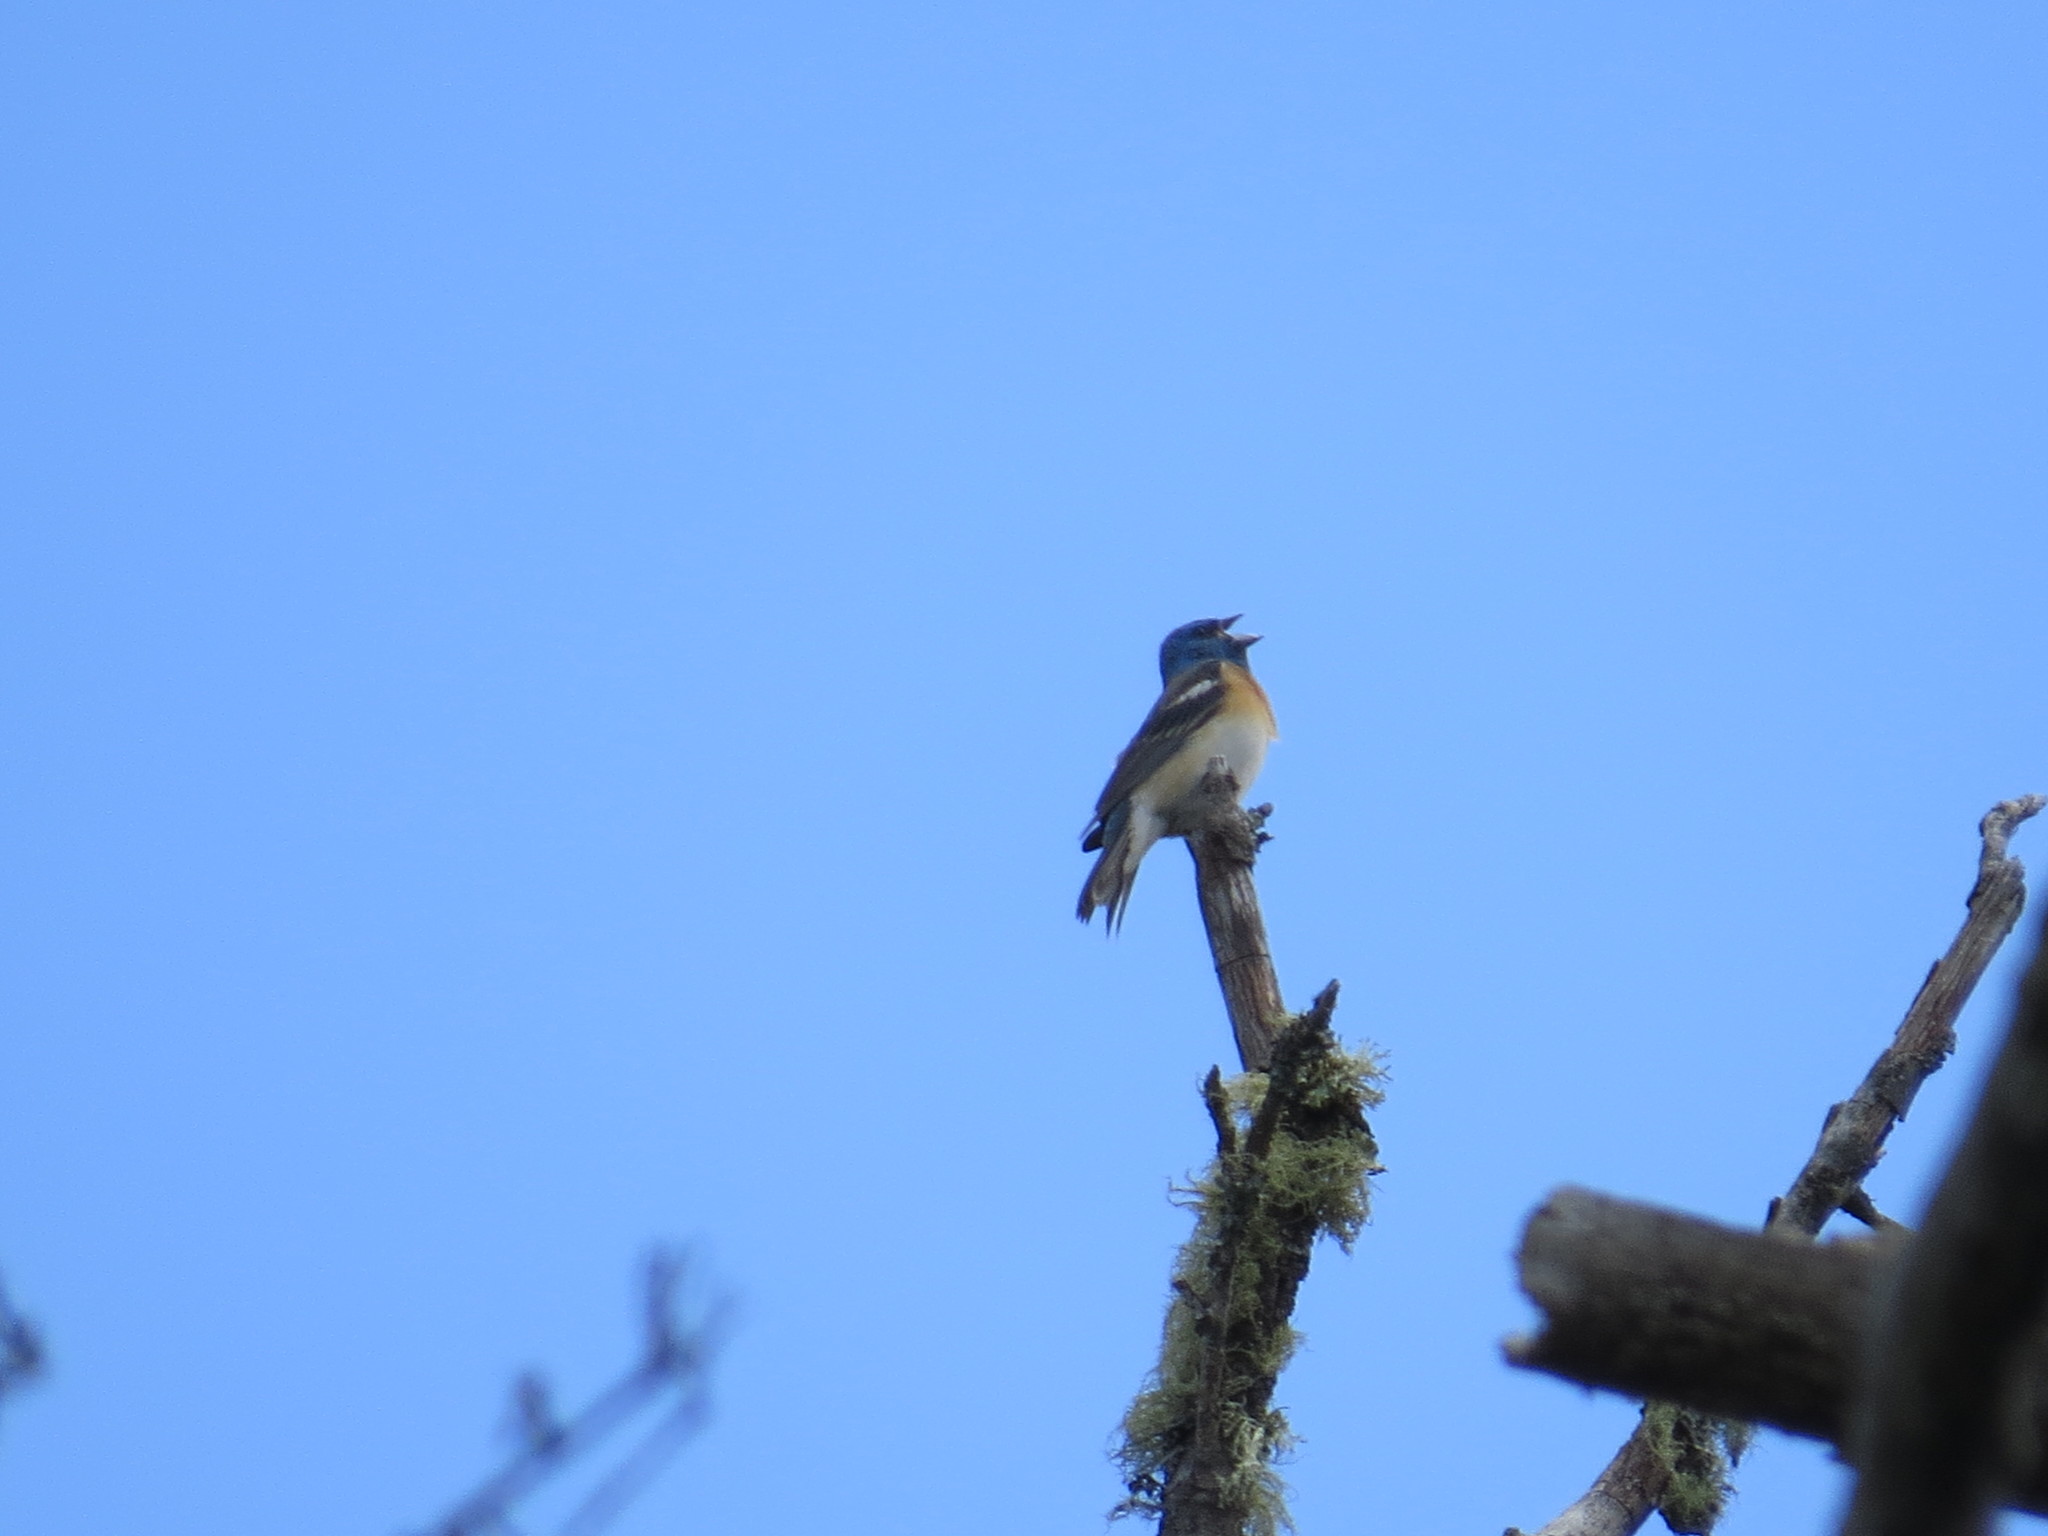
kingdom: Animalia
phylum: Chordata
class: Aves
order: Passeriformes
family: Cardinalidae
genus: Passerina
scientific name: Passerina amoena
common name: Lazuli bunting
